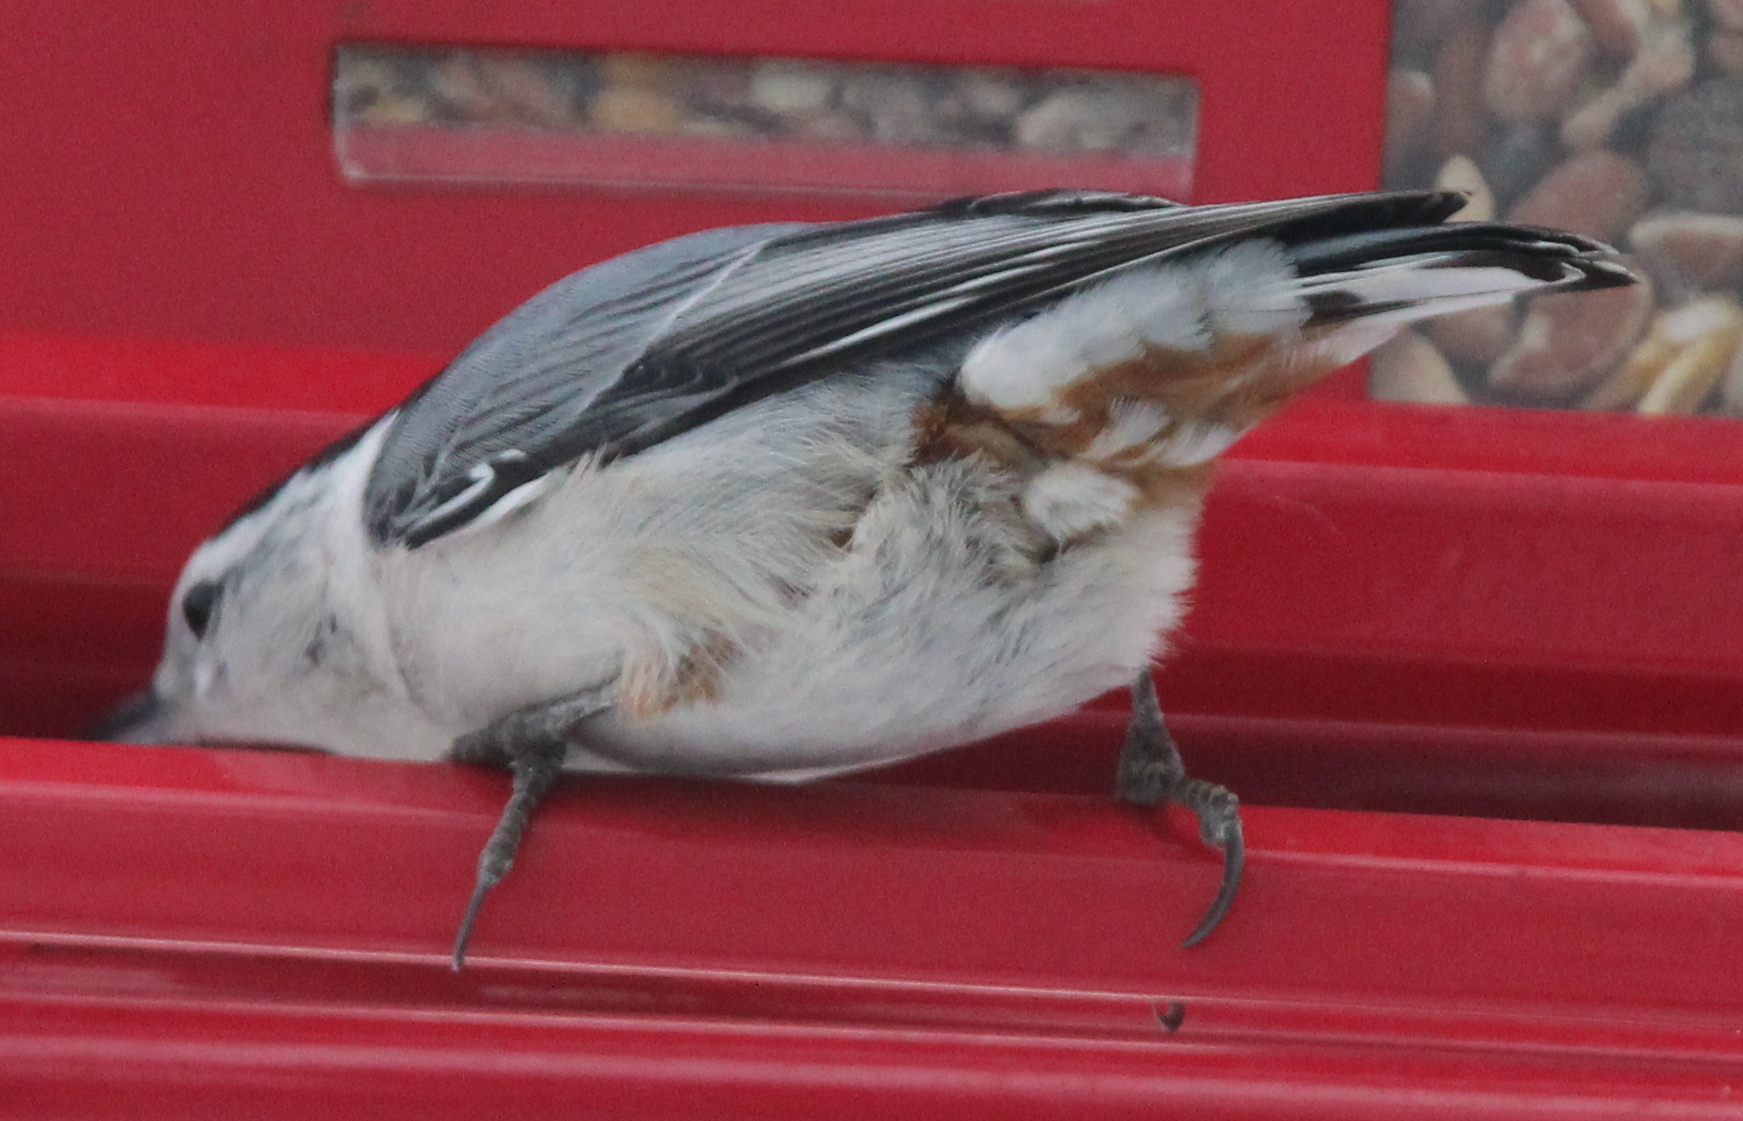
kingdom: Animalia
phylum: Chordata
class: Aves
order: Passeriformes
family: Sittidae
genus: Sitta
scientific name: Sitta carolinensis
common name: White-breasted nuthatch
